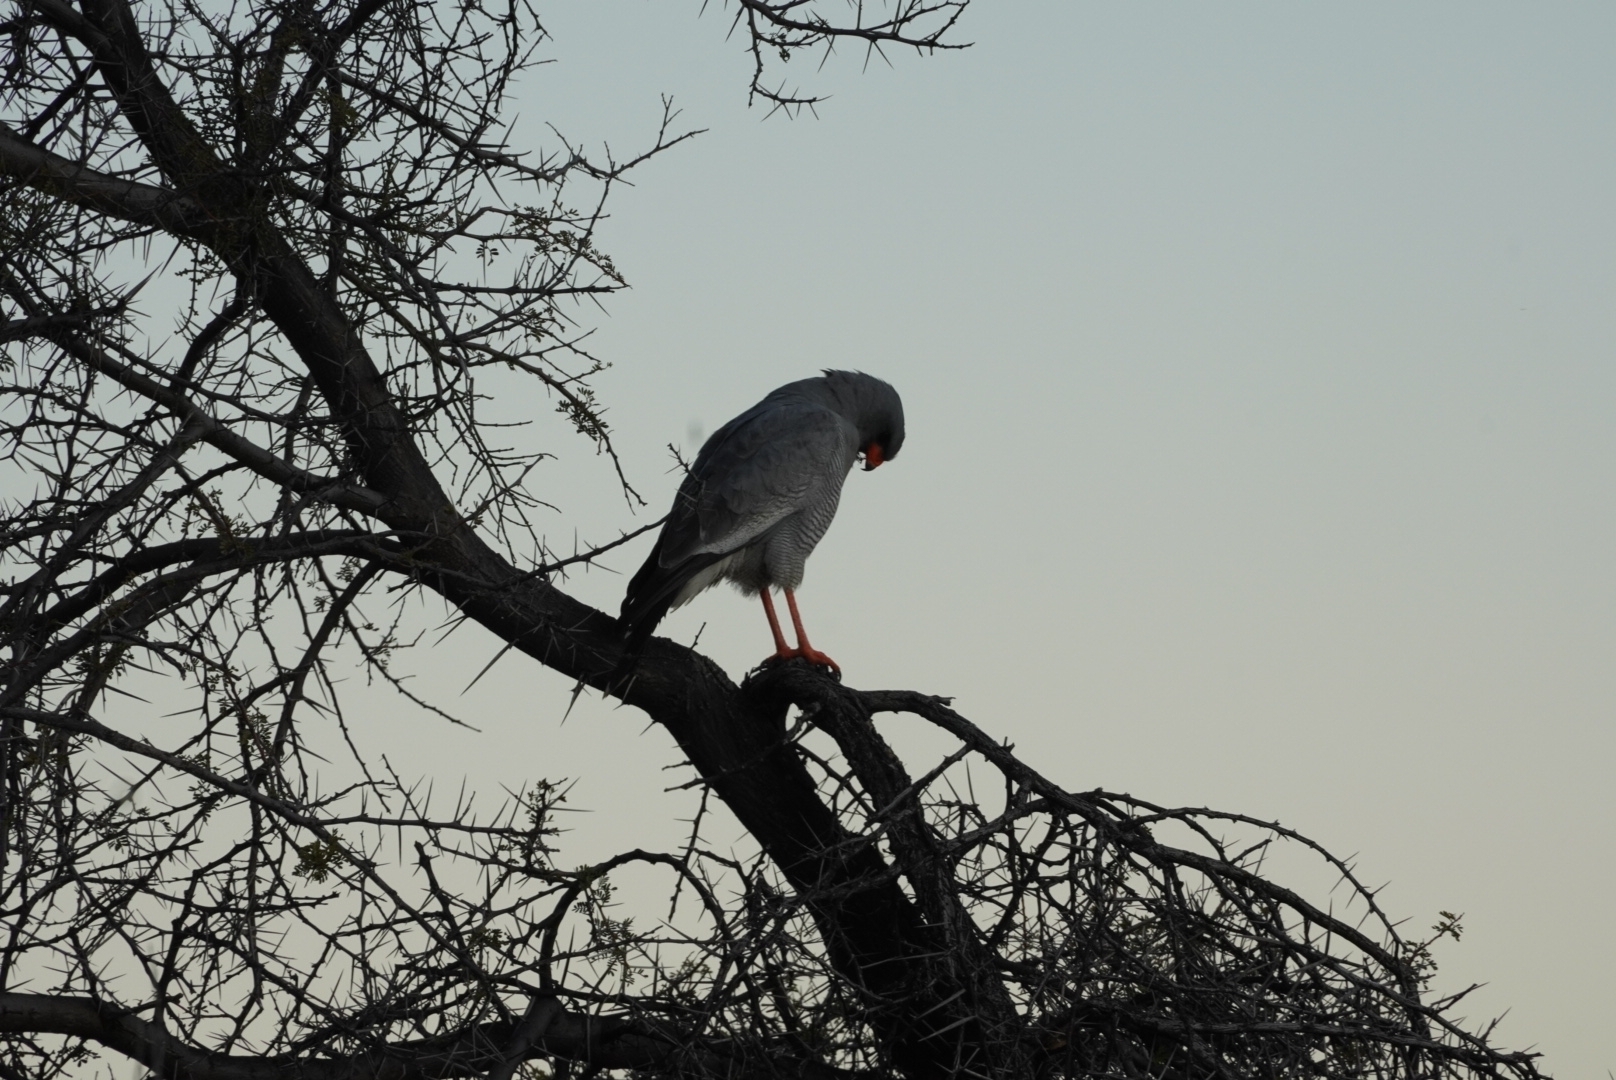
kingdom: Animalia
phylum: Chordata
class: Aves
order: Accipitriformes
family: Accipitridae
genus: Melierax
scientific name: Melierax canorus
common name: Pale chanting-goshawk
